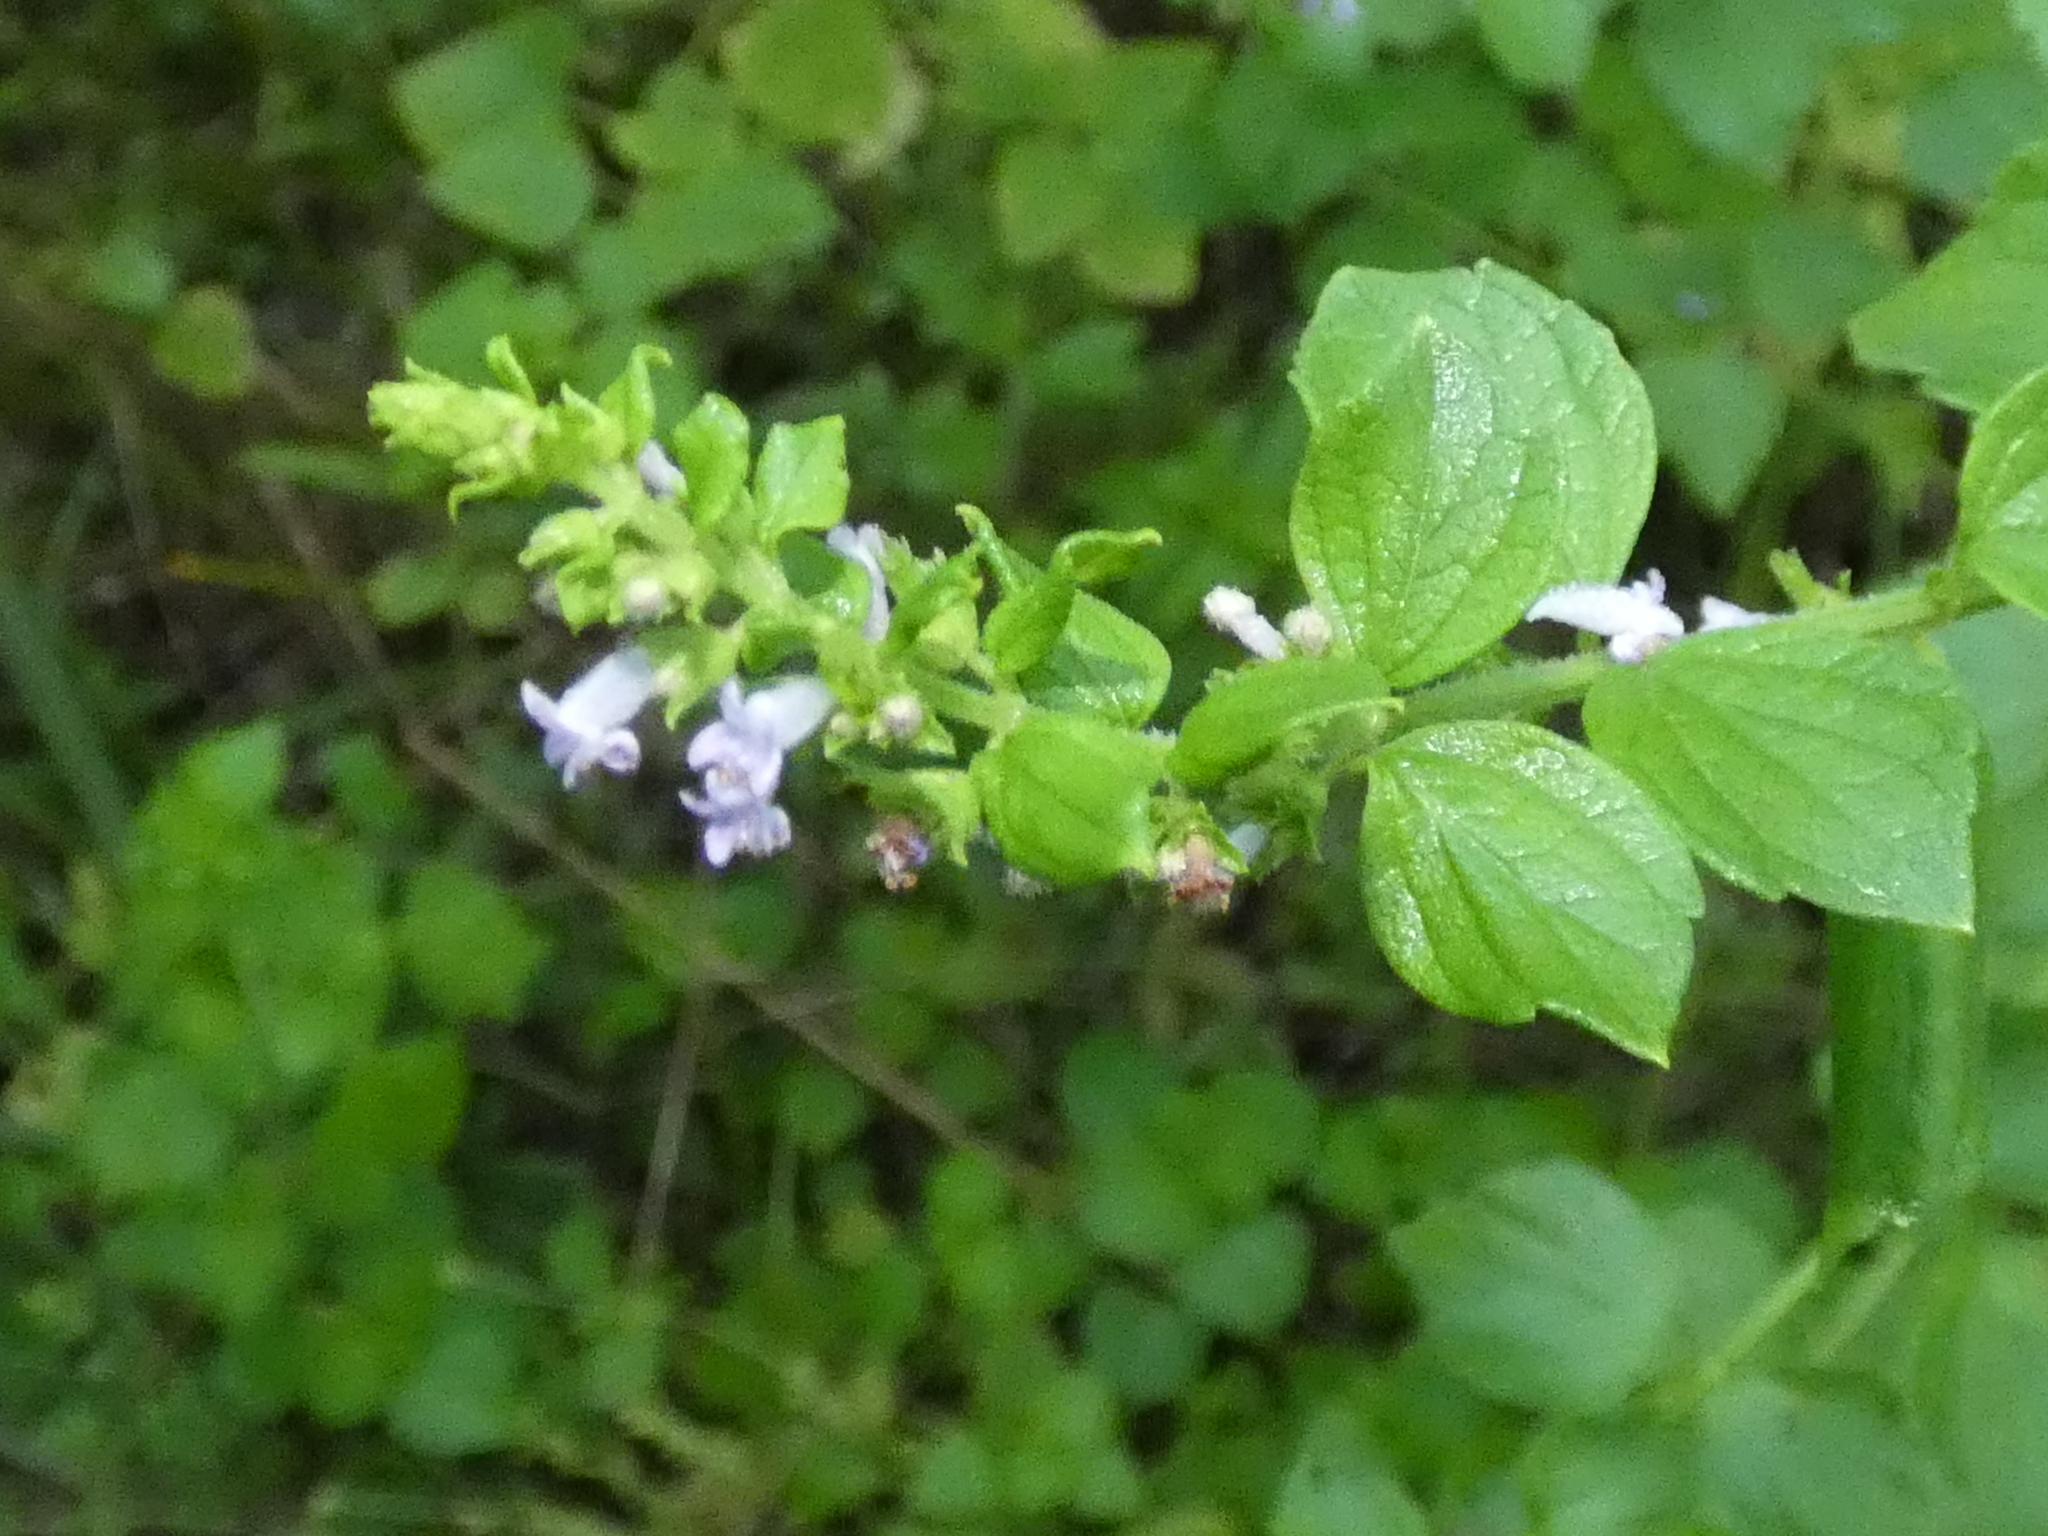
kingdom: Plantae
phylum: Tracheophyta
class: Magnoliopsida
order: Lamiales
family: Lamiaceae
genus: Cantinoa
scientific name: Cantinoa mutabilis
